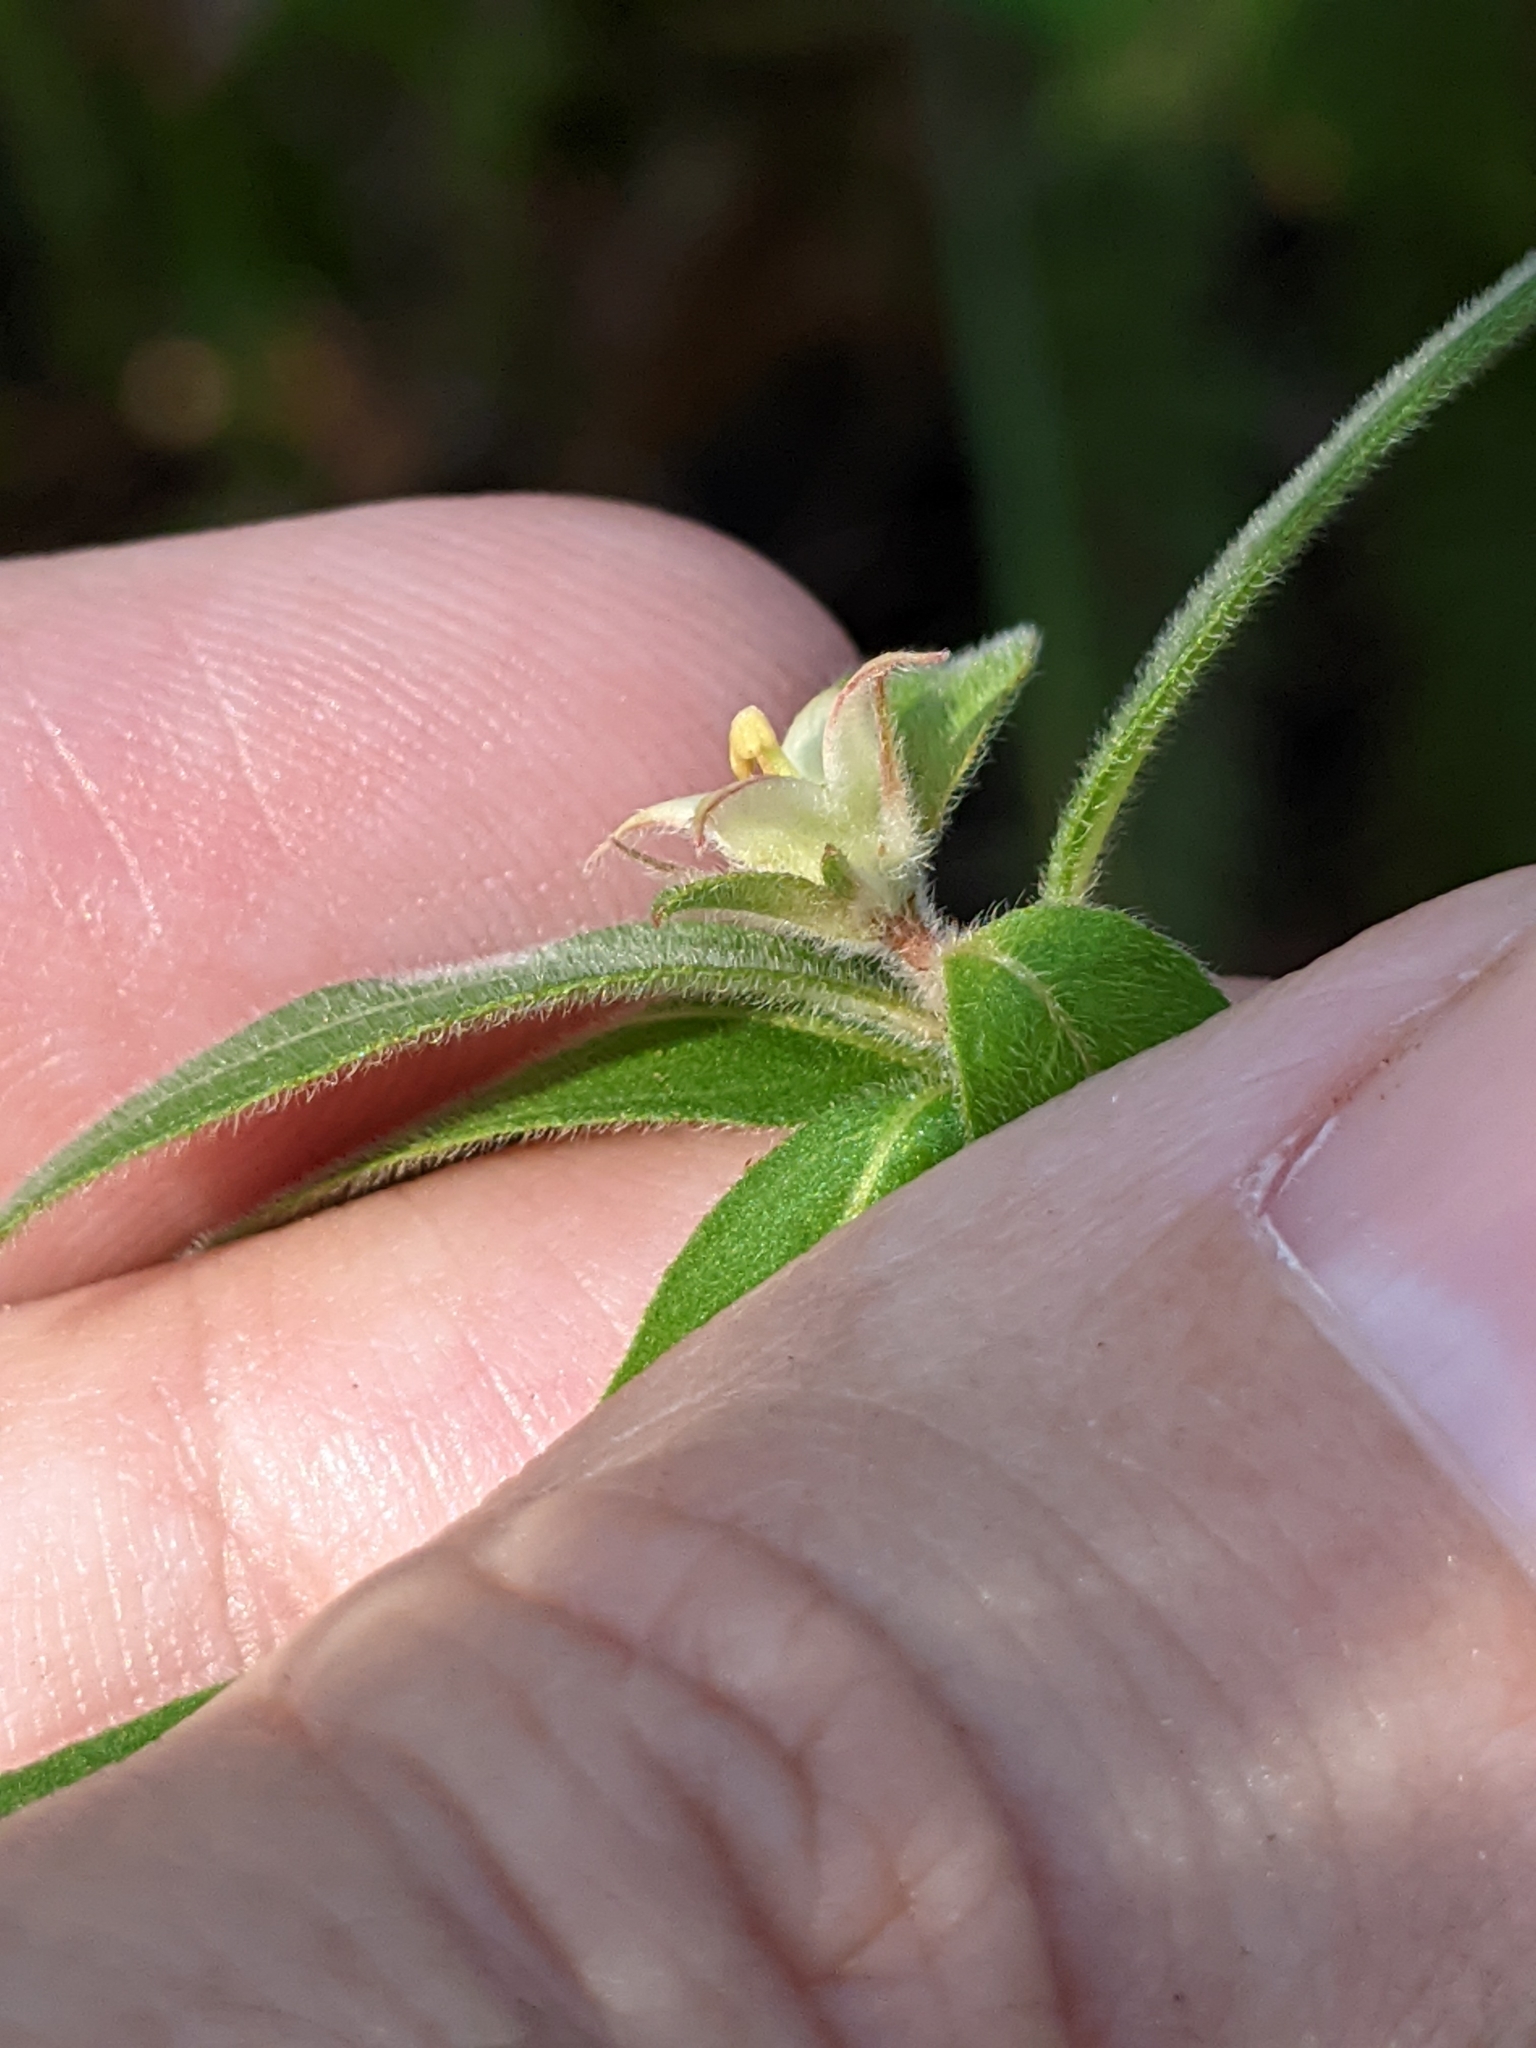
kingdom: Plantae
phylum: Tracheophyta
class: Magnoliopsida
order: Myrtales
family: Onagraceae
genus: Ludwigia
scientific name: Ludwigia pilosa
